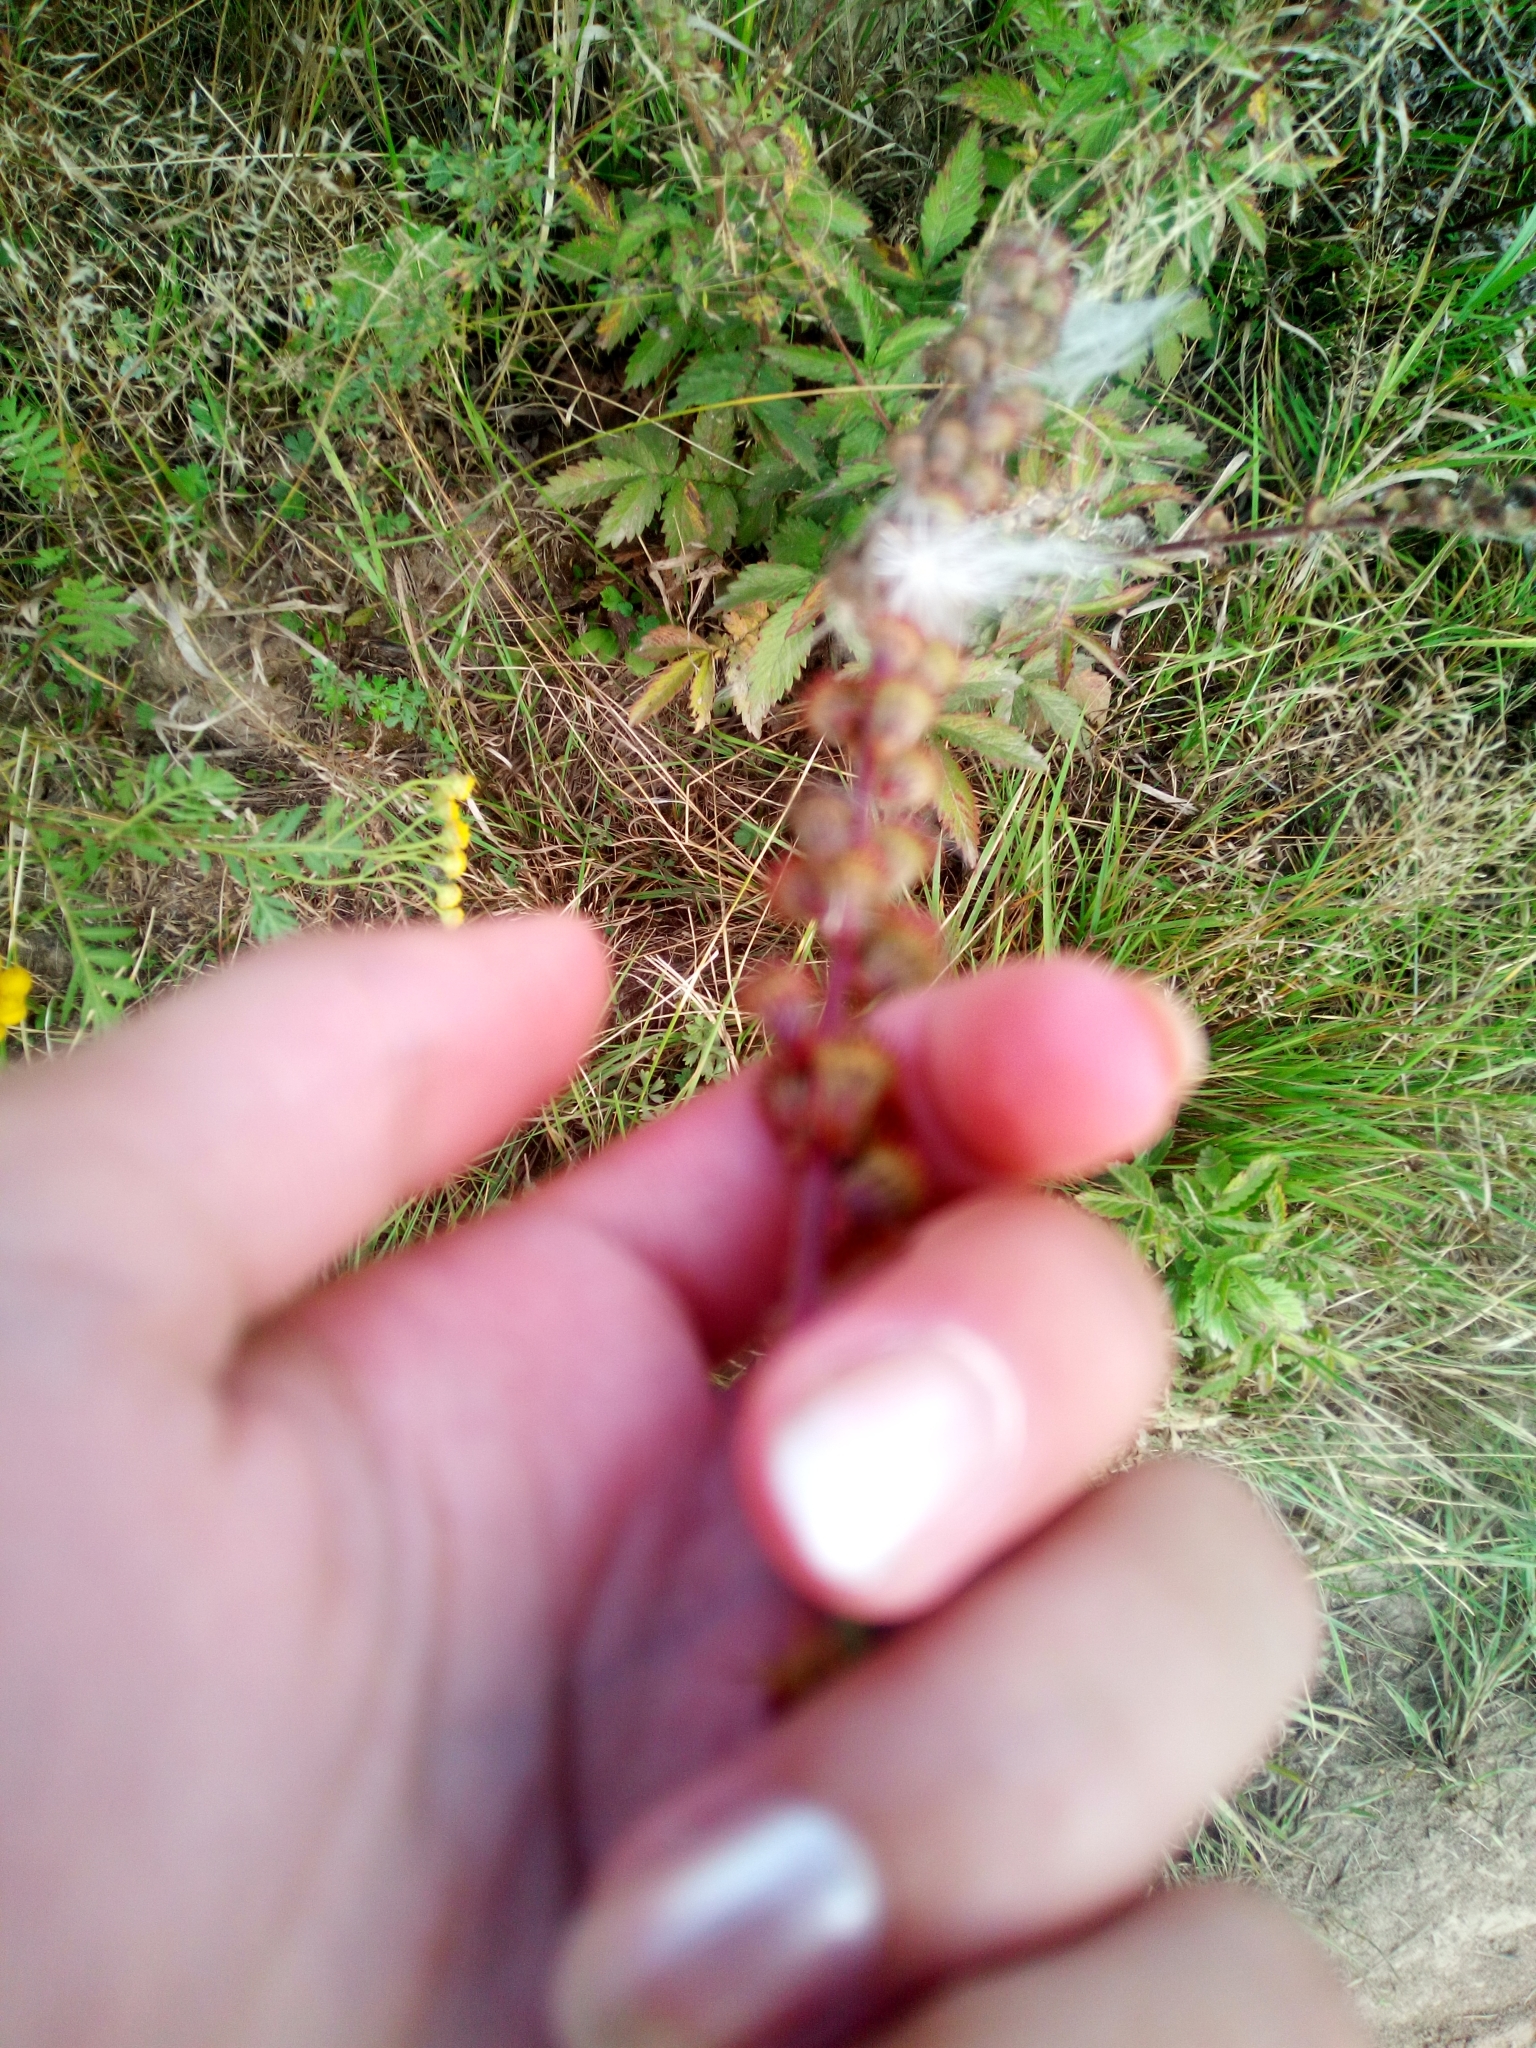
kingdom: Plantae
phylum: Tracheophyta
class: Magnoliopsida
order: Rosales
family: Rosaceae
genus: Agrimonia
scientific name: Agrimonia eupatoria
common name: Agrimony
